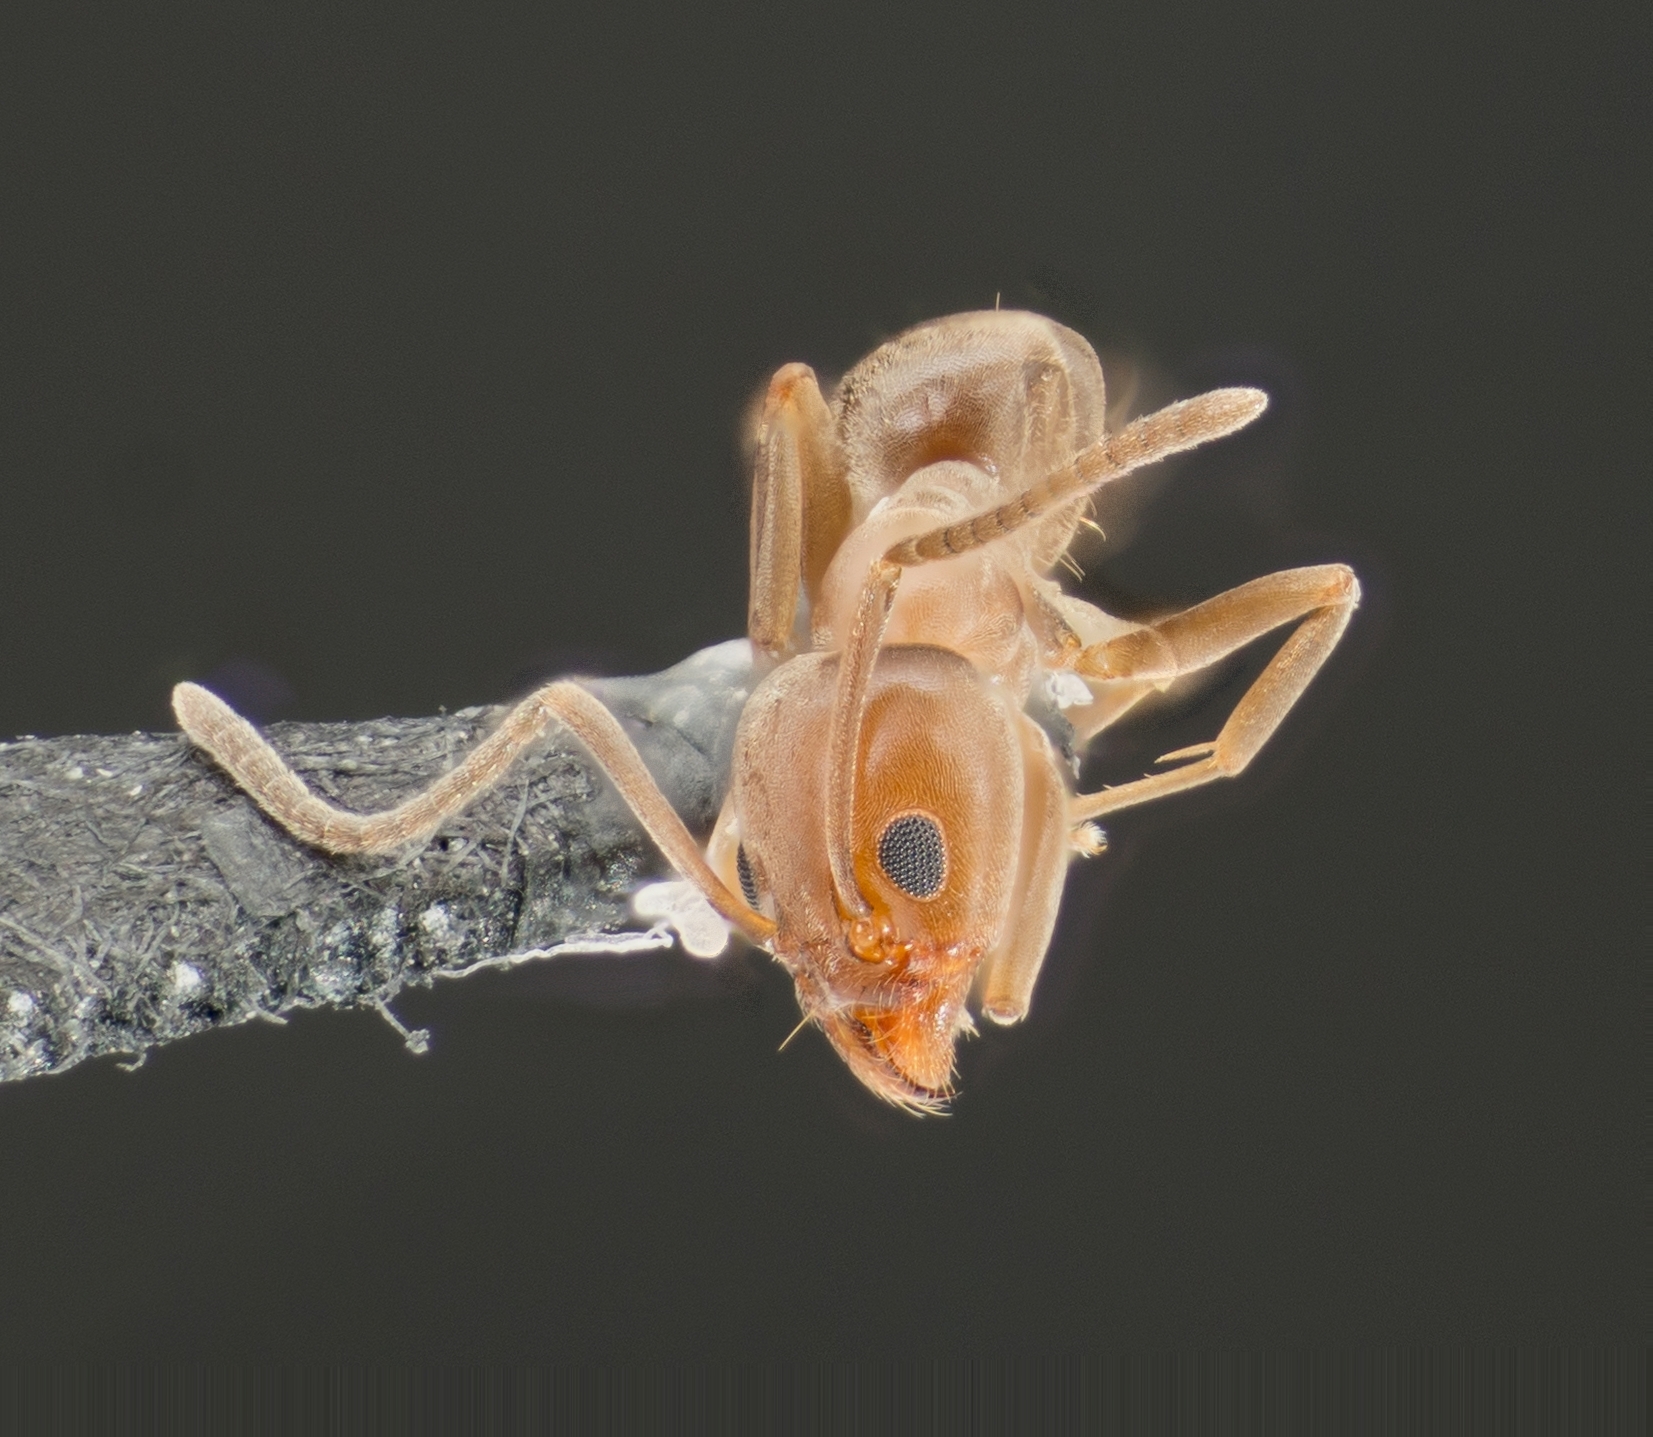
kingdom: Animalia
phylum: Arthropoda
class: Insecta
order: Hymenoptera
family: Formicidae
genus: Linepithema
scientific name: Linepithema humile
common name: Argentine ant
